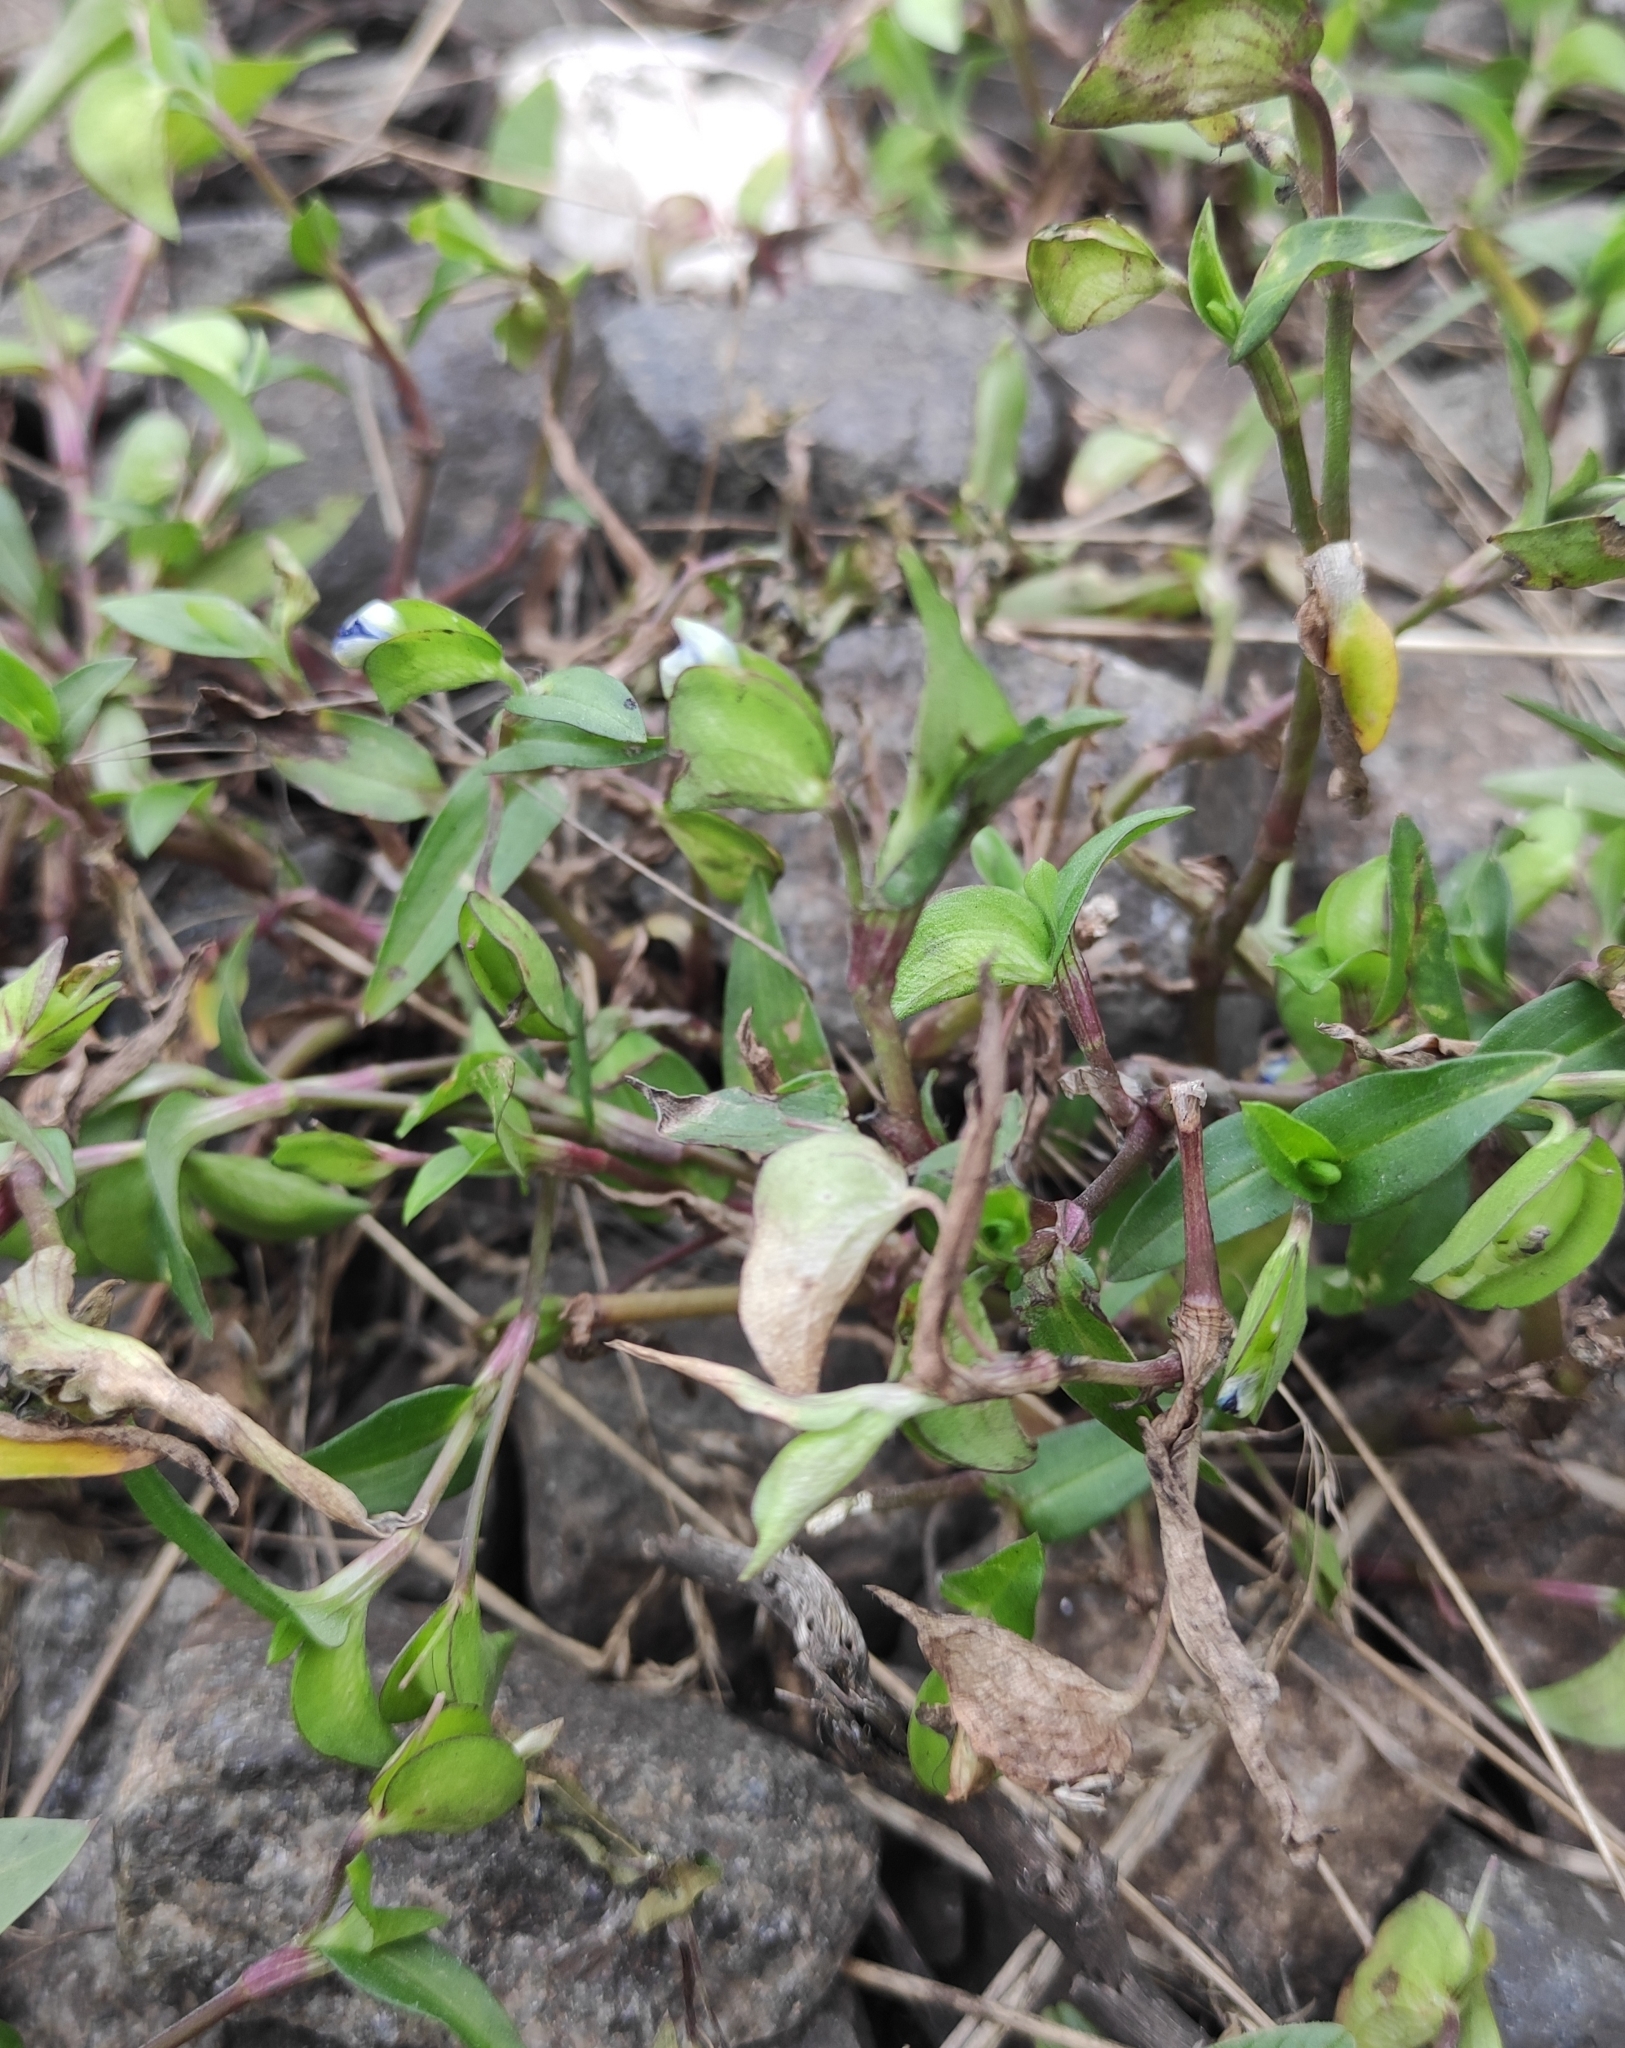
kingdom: Plantae
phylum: Tracheophyta
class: Liliopsida
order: Commelinales
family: Commelinaceae
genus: Commelina
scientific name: Commelina communis
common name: Asiatic dayflower
